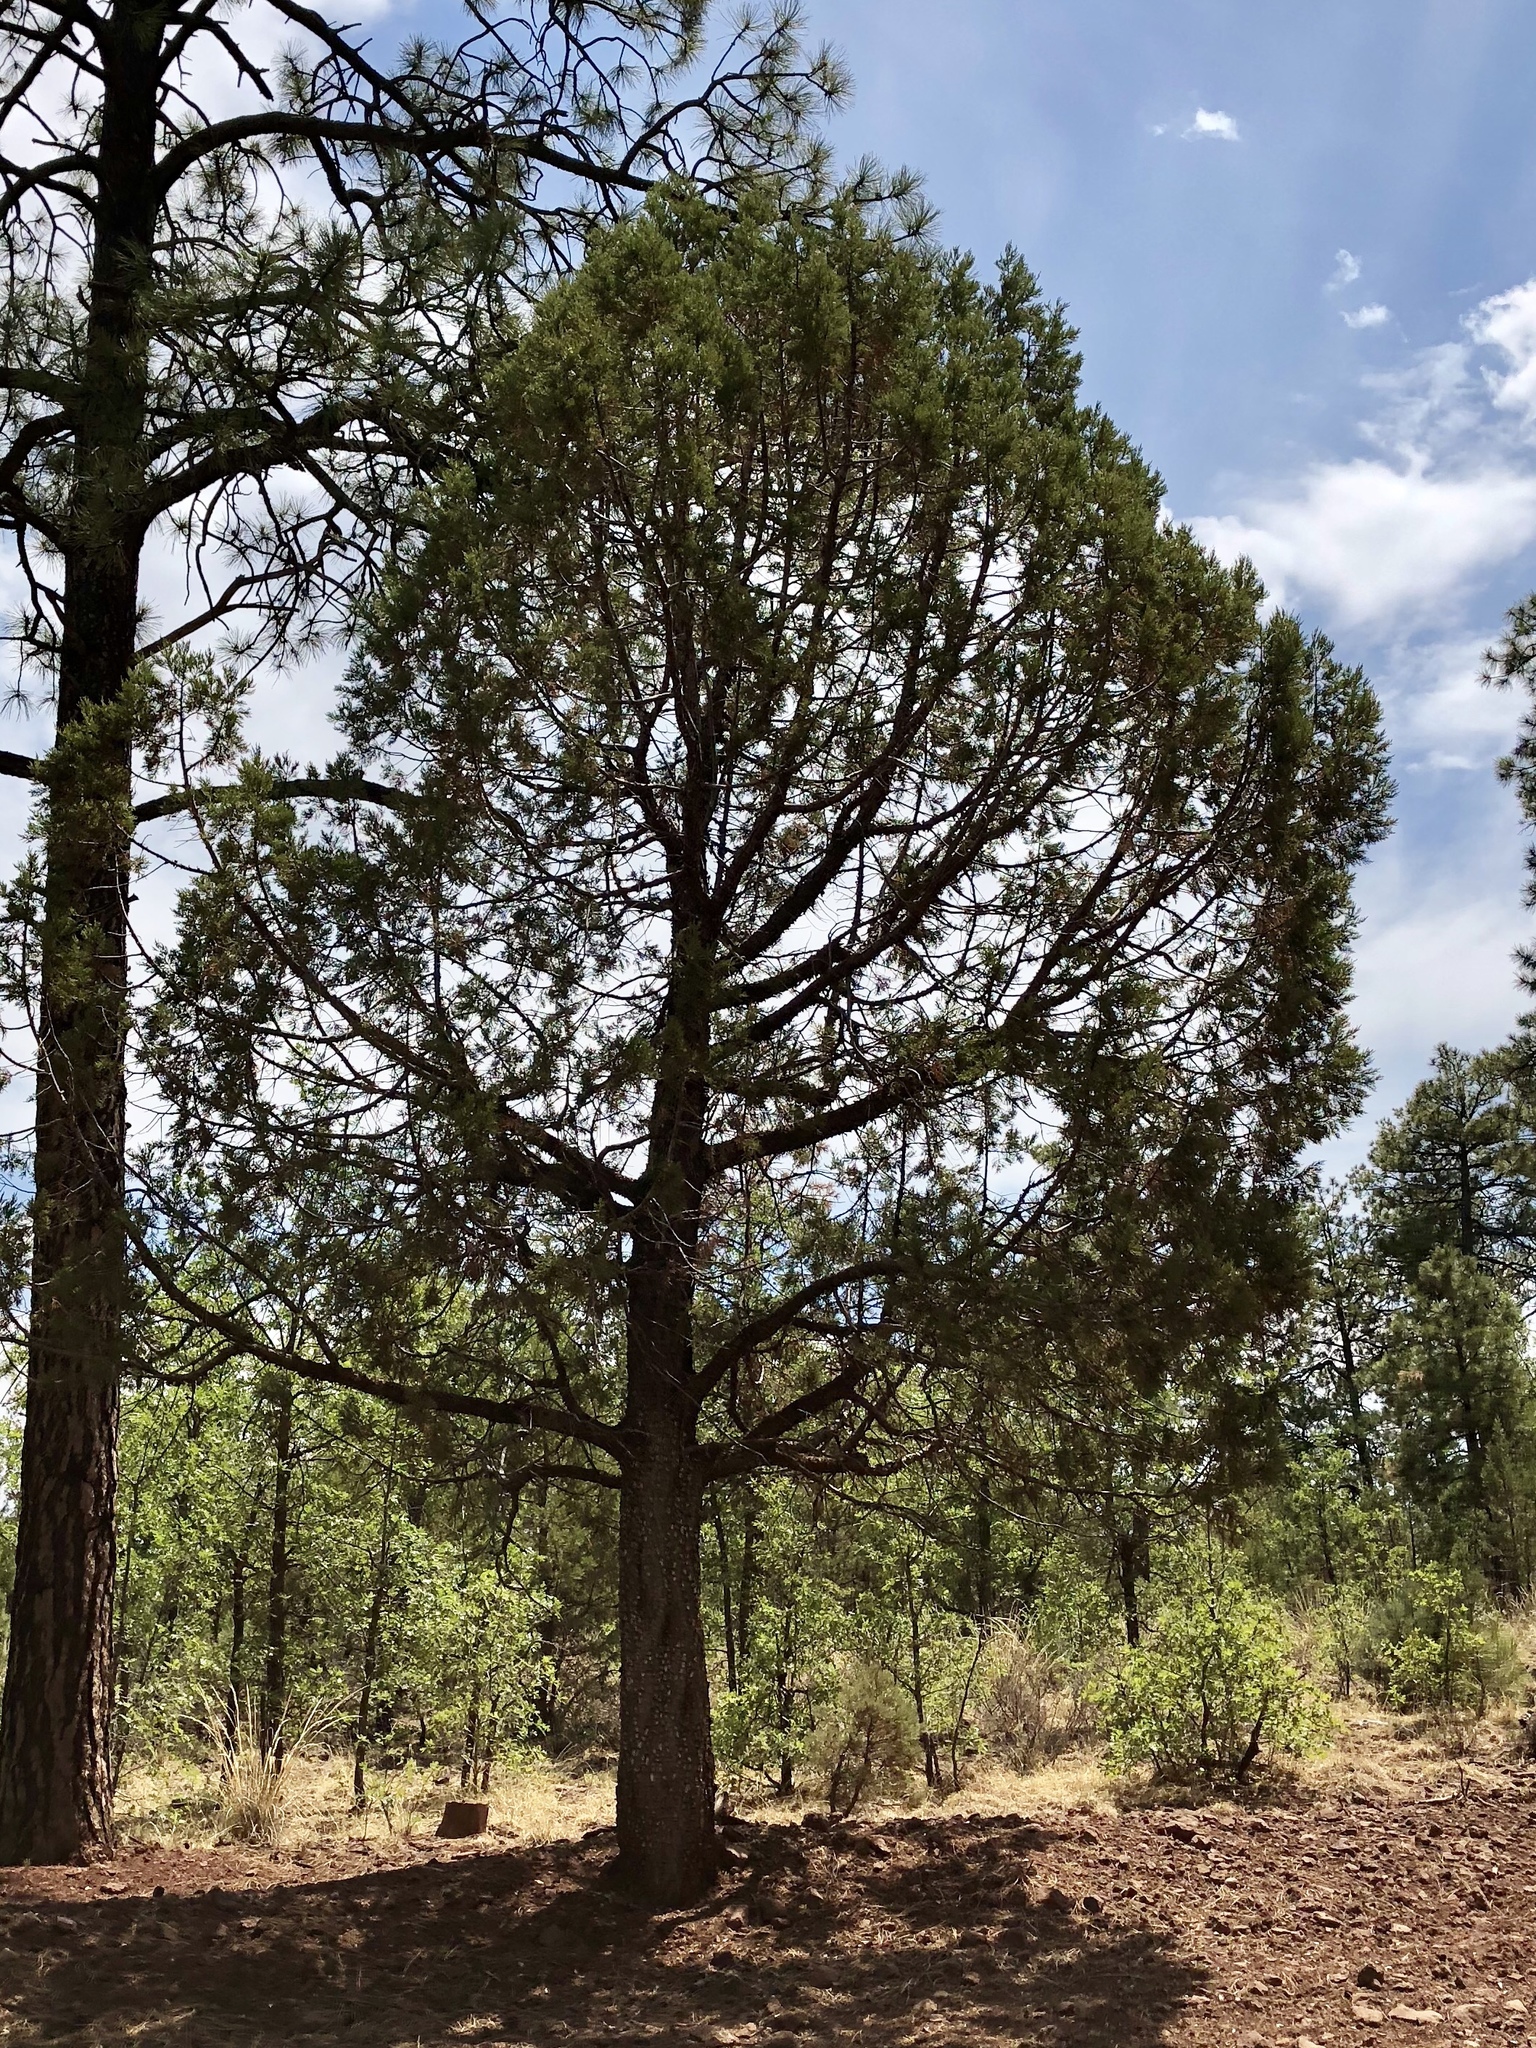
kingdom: Plantae
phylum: Tracheophyta
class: Pinopsida
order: Pinales
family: Cupressaceae
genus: Juniperus
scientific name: Juniperus deppeana
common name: Alligator juniper
